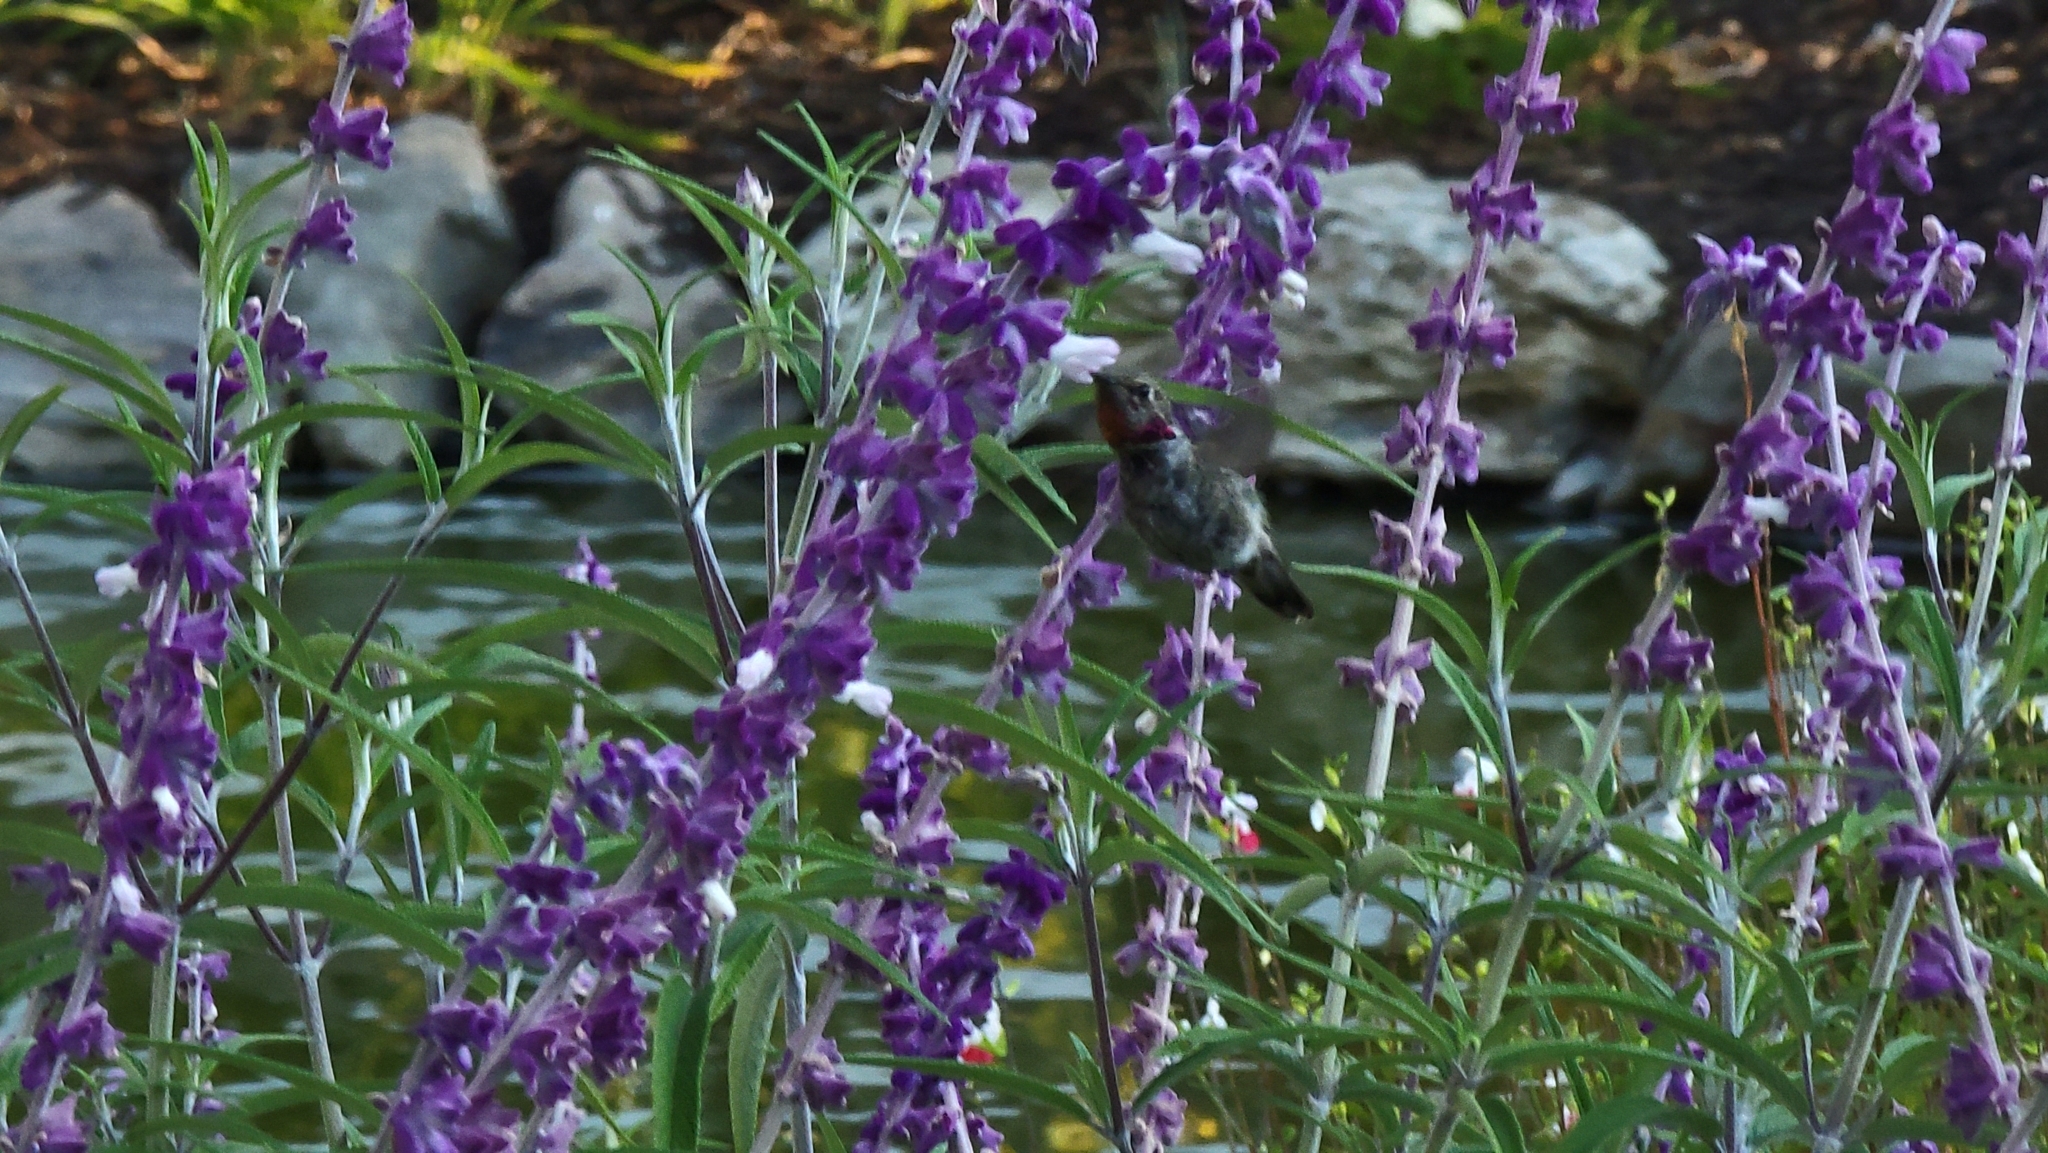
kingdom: Animalia
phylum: Chordata
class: Aves
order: Apodiformes
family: Trochilidae
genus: Calypte
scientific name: Calypte anna
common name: Anna's hummingbird
